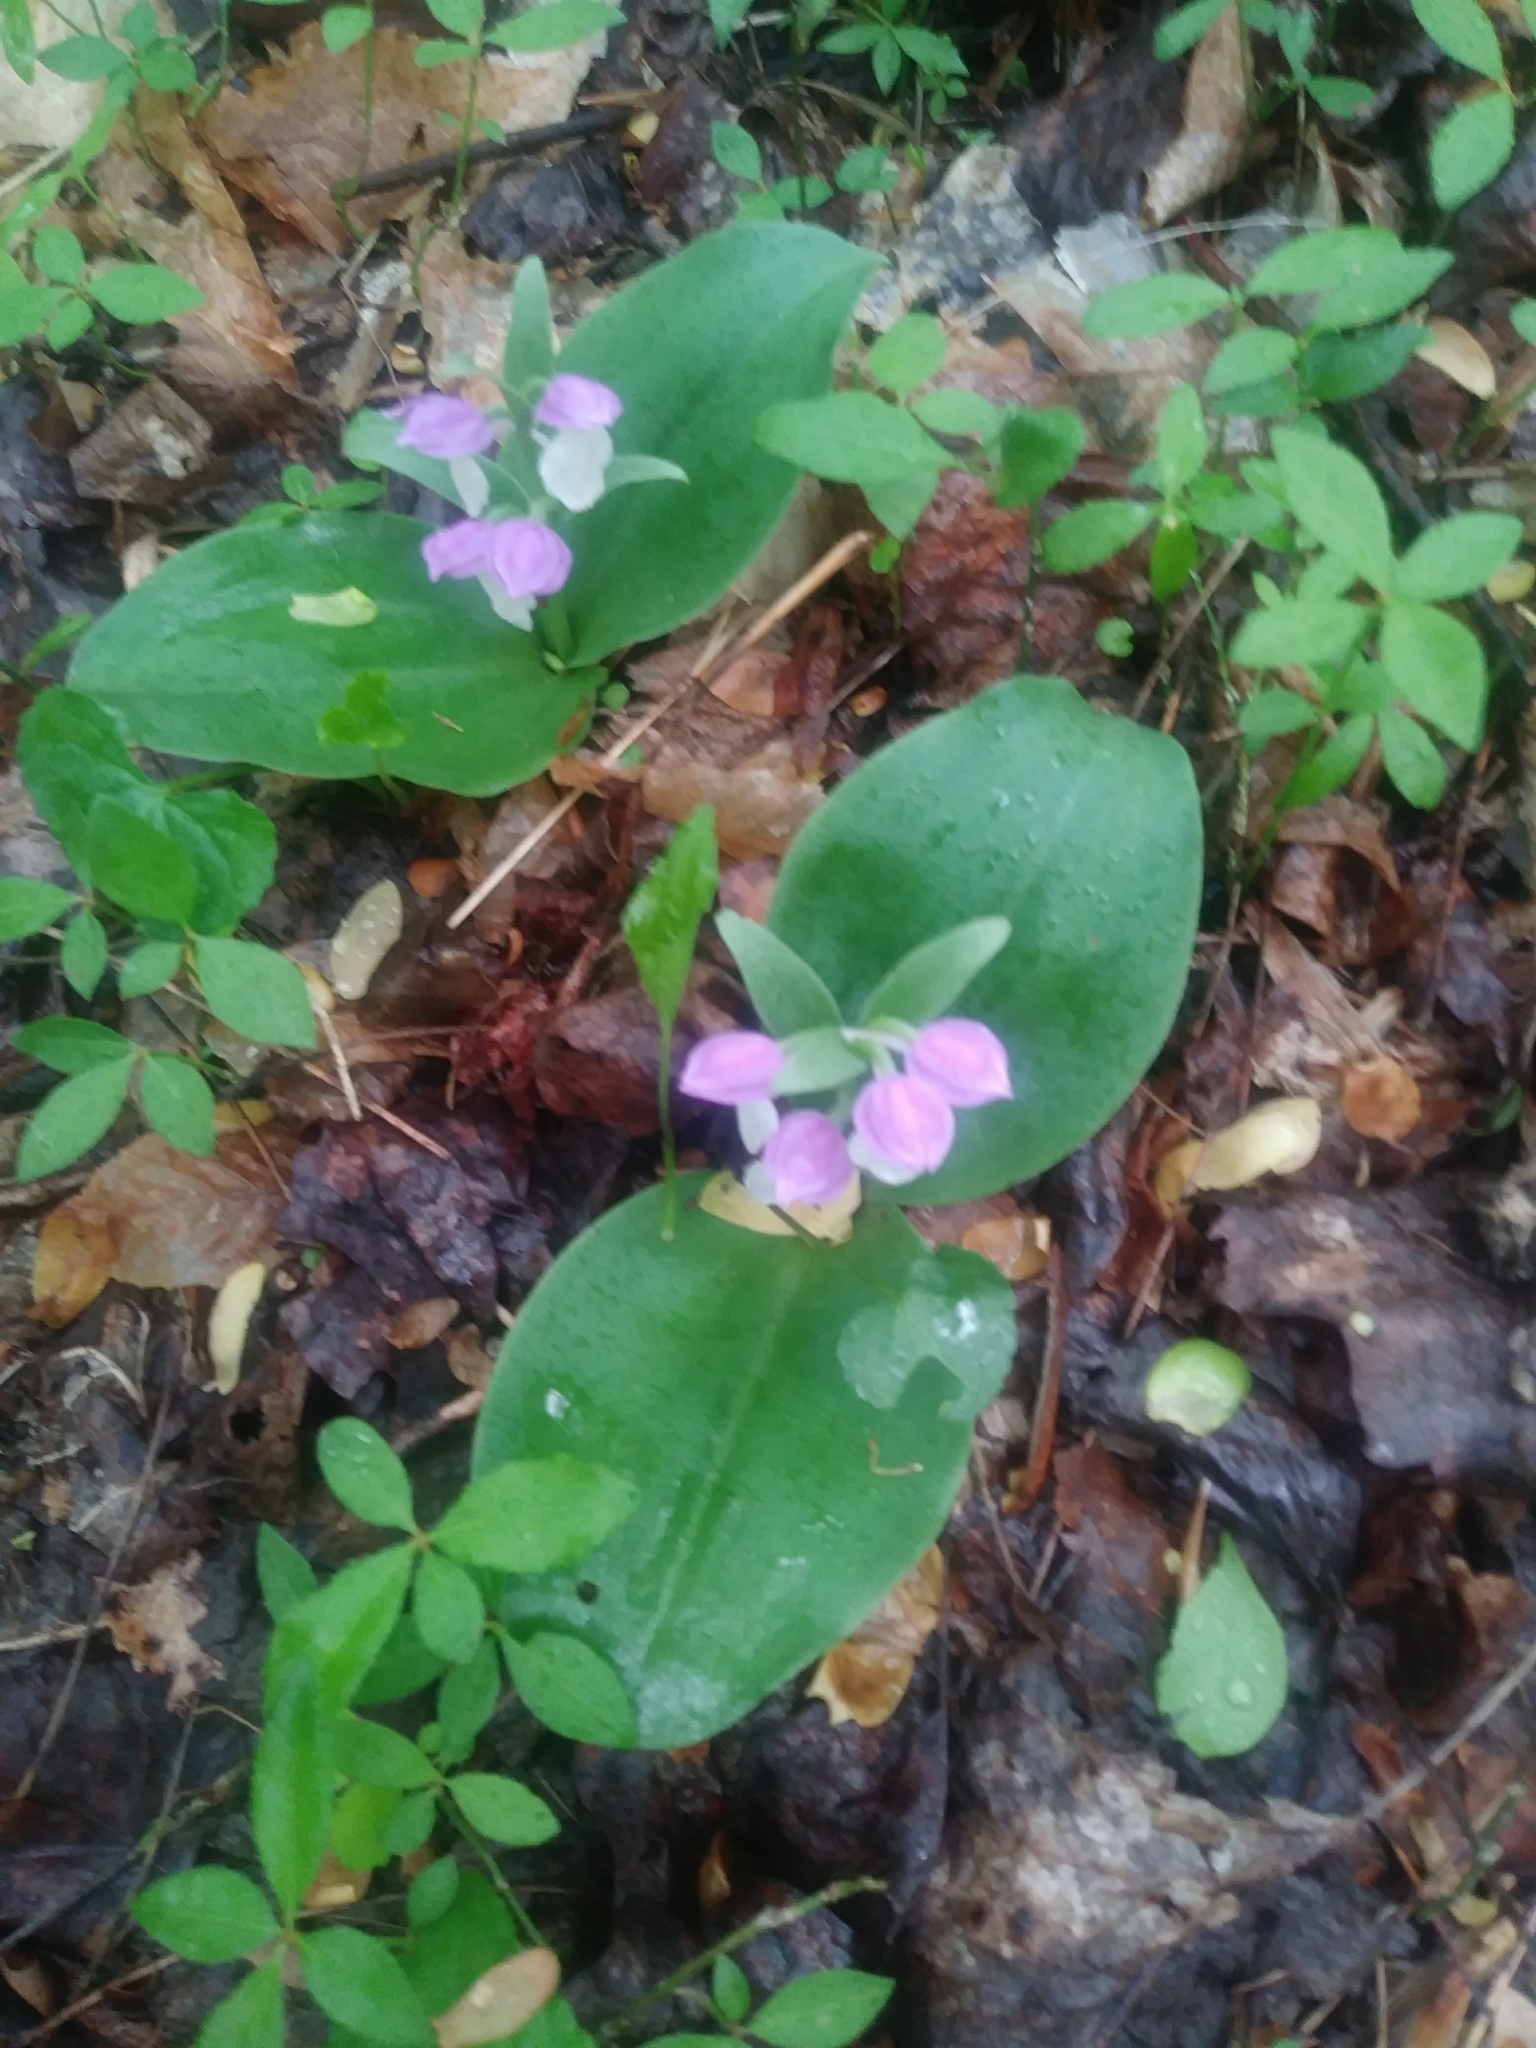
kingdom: Plantae
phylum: Tracheophyta
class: Liliopsida
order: Asparagales
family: Orchidaceae
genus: Galearis
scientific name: Galearis spectabilis
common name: Purple-hooded orchis
